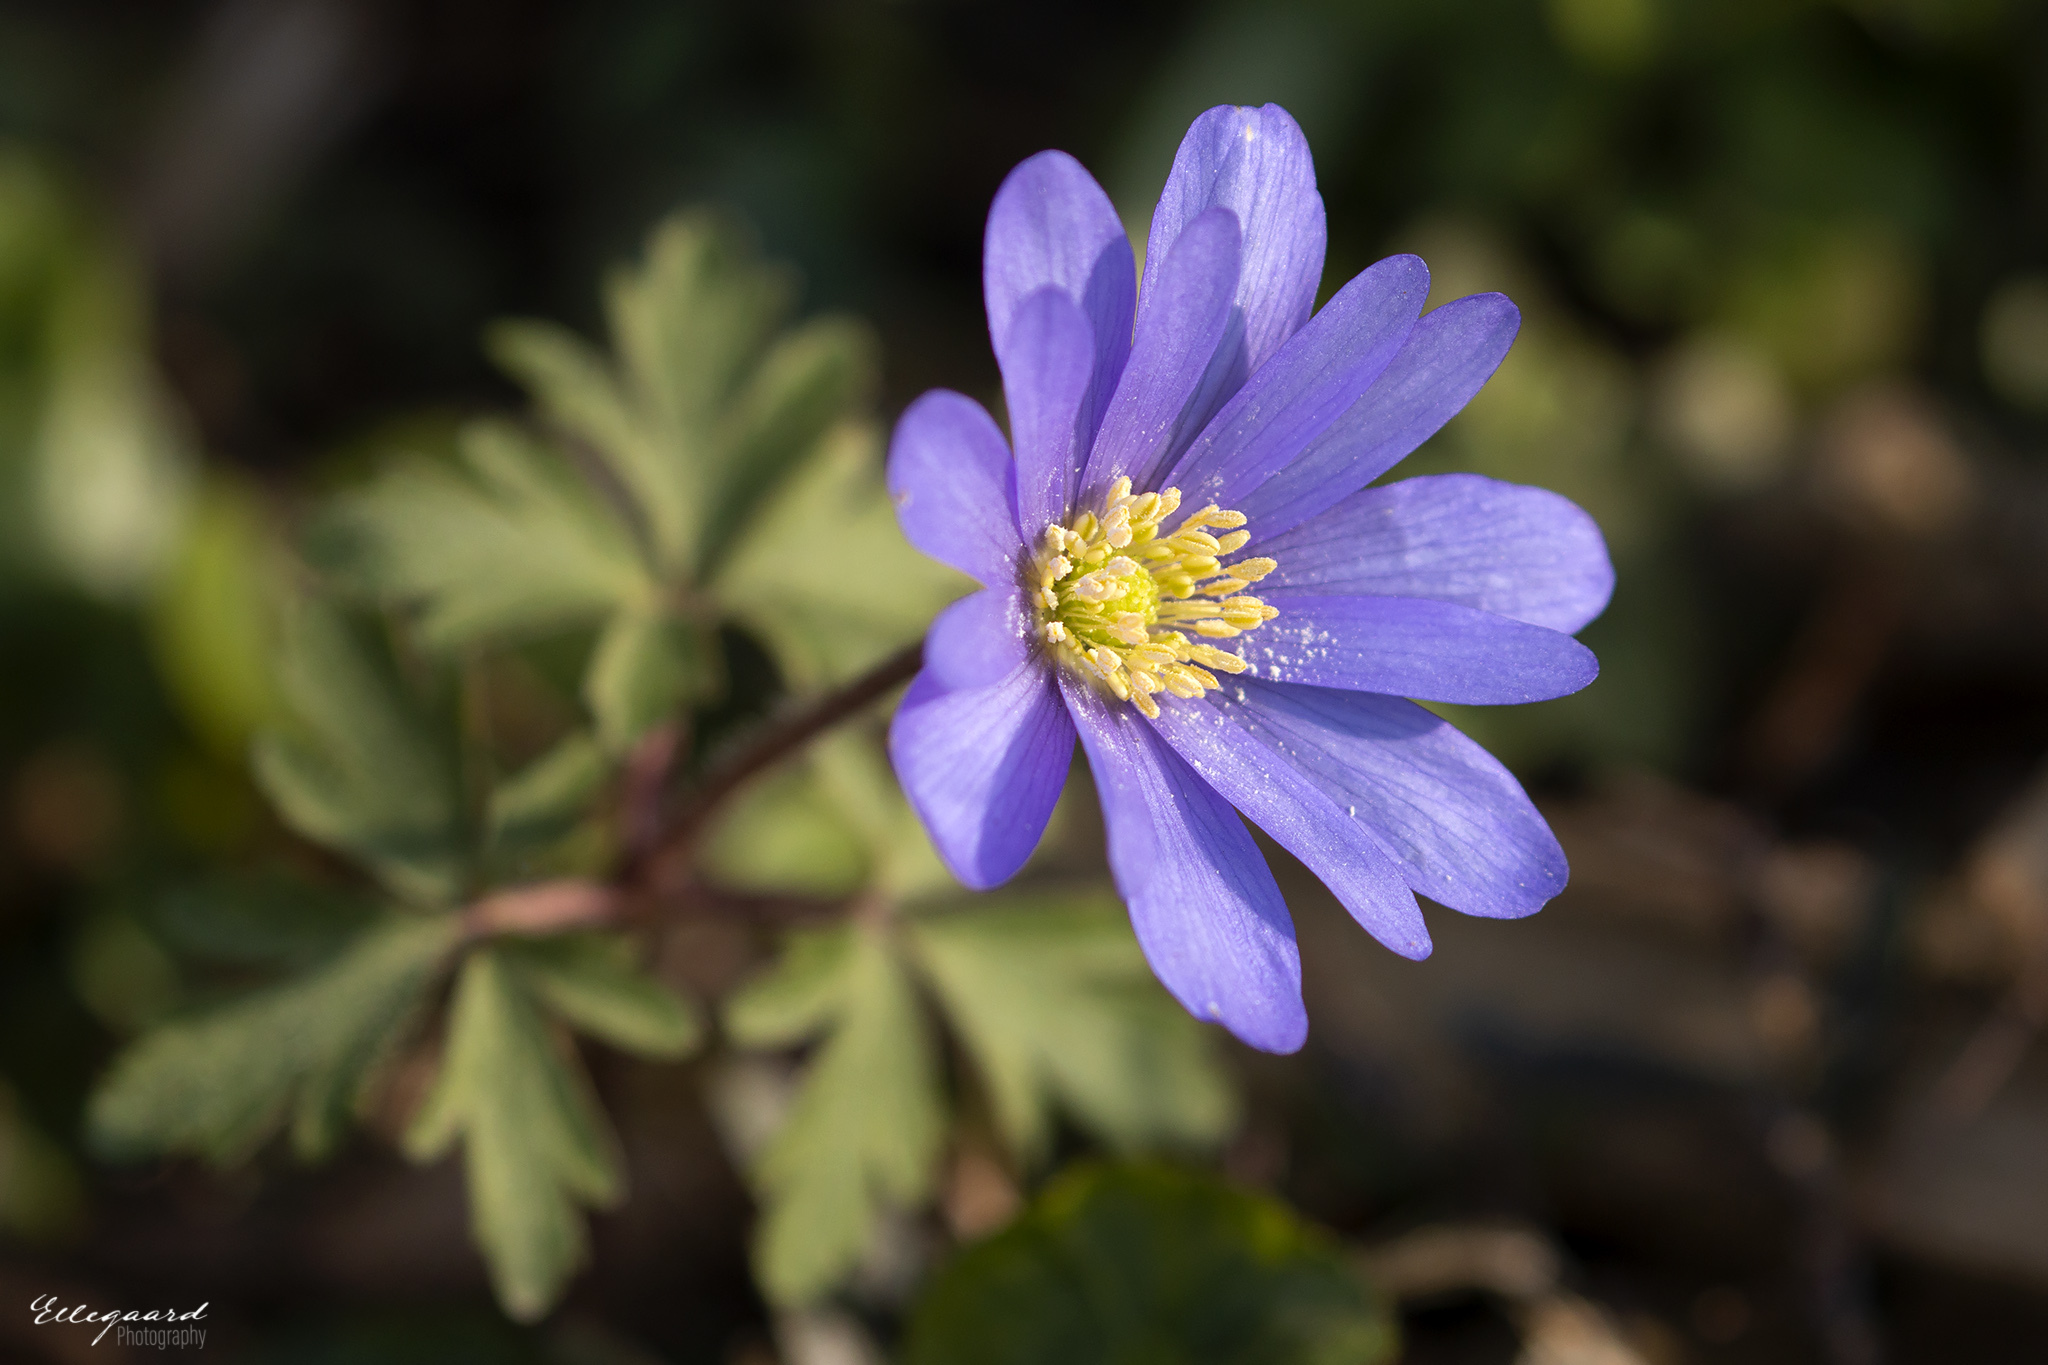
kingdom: Plantae
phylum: Tracheophyta
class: Magnoliopsida
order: Ranunculales
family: Ranunculaceae
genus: Anemone
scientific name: Anemone blanda
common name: Balkan anemone
